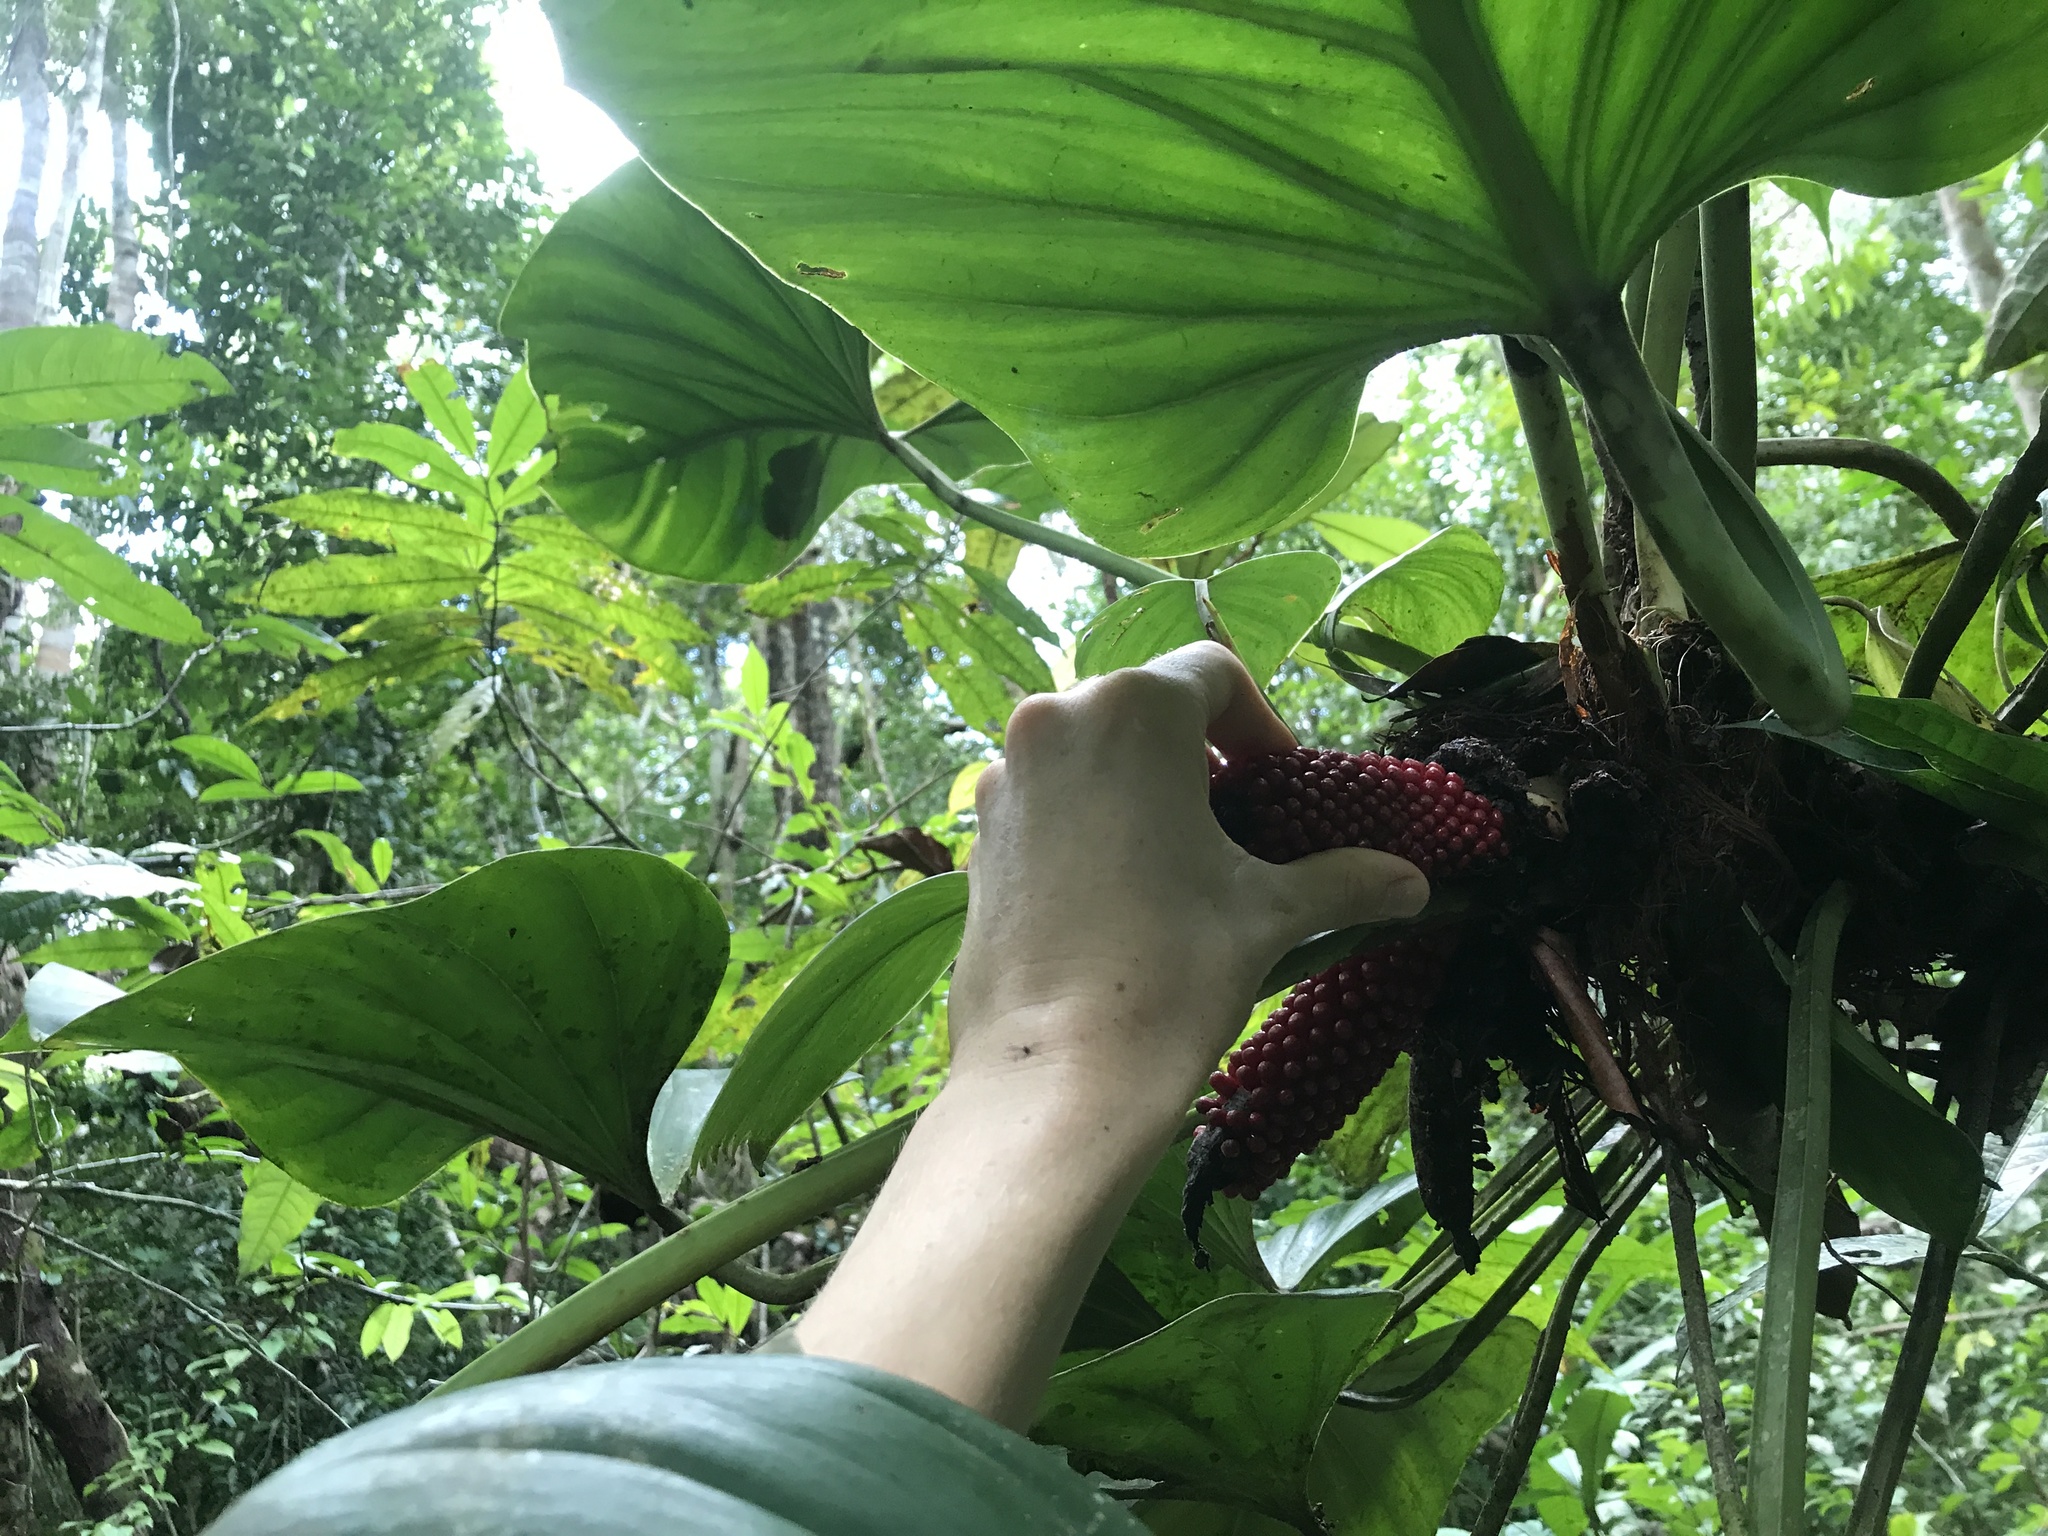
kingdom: Plantae
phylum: Tracheophyta
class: Liliopsida
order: Alismatales
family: Araceae
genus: Philodendron
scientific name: Philodendron fragrantissimum
